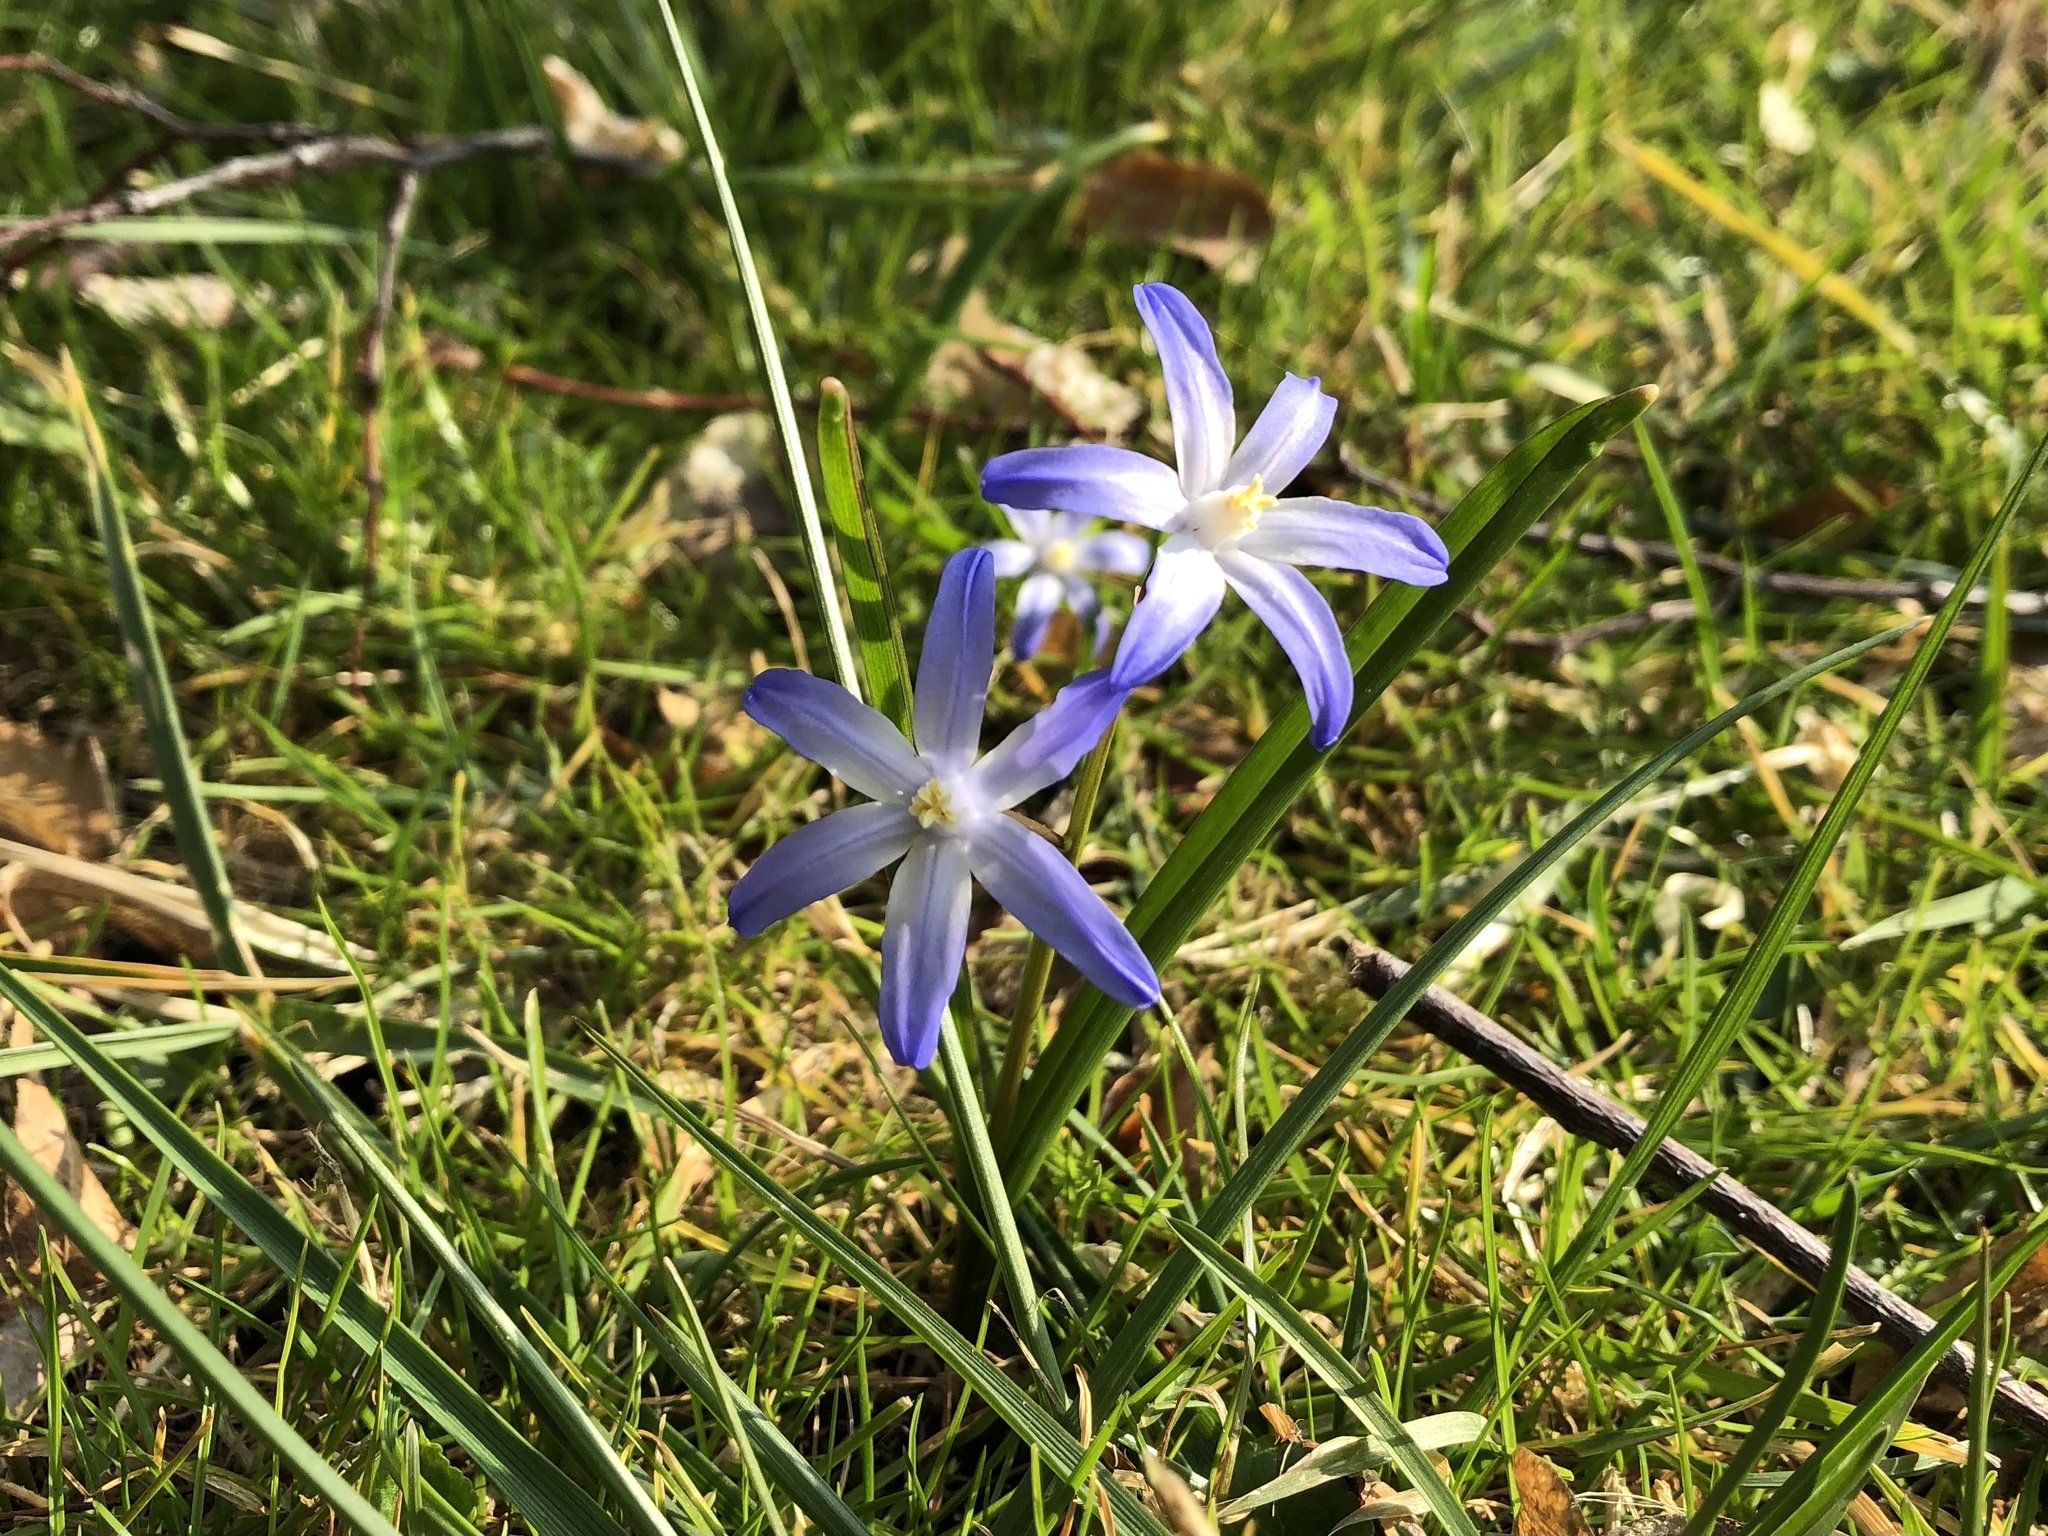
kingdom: Plantae
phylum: Tracheophyta
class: Liliopsida
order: Asparagales
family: Asparagaceae
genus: Scilla
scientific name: Scilla luciliae
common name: Boissier's glory-of-the-snow
